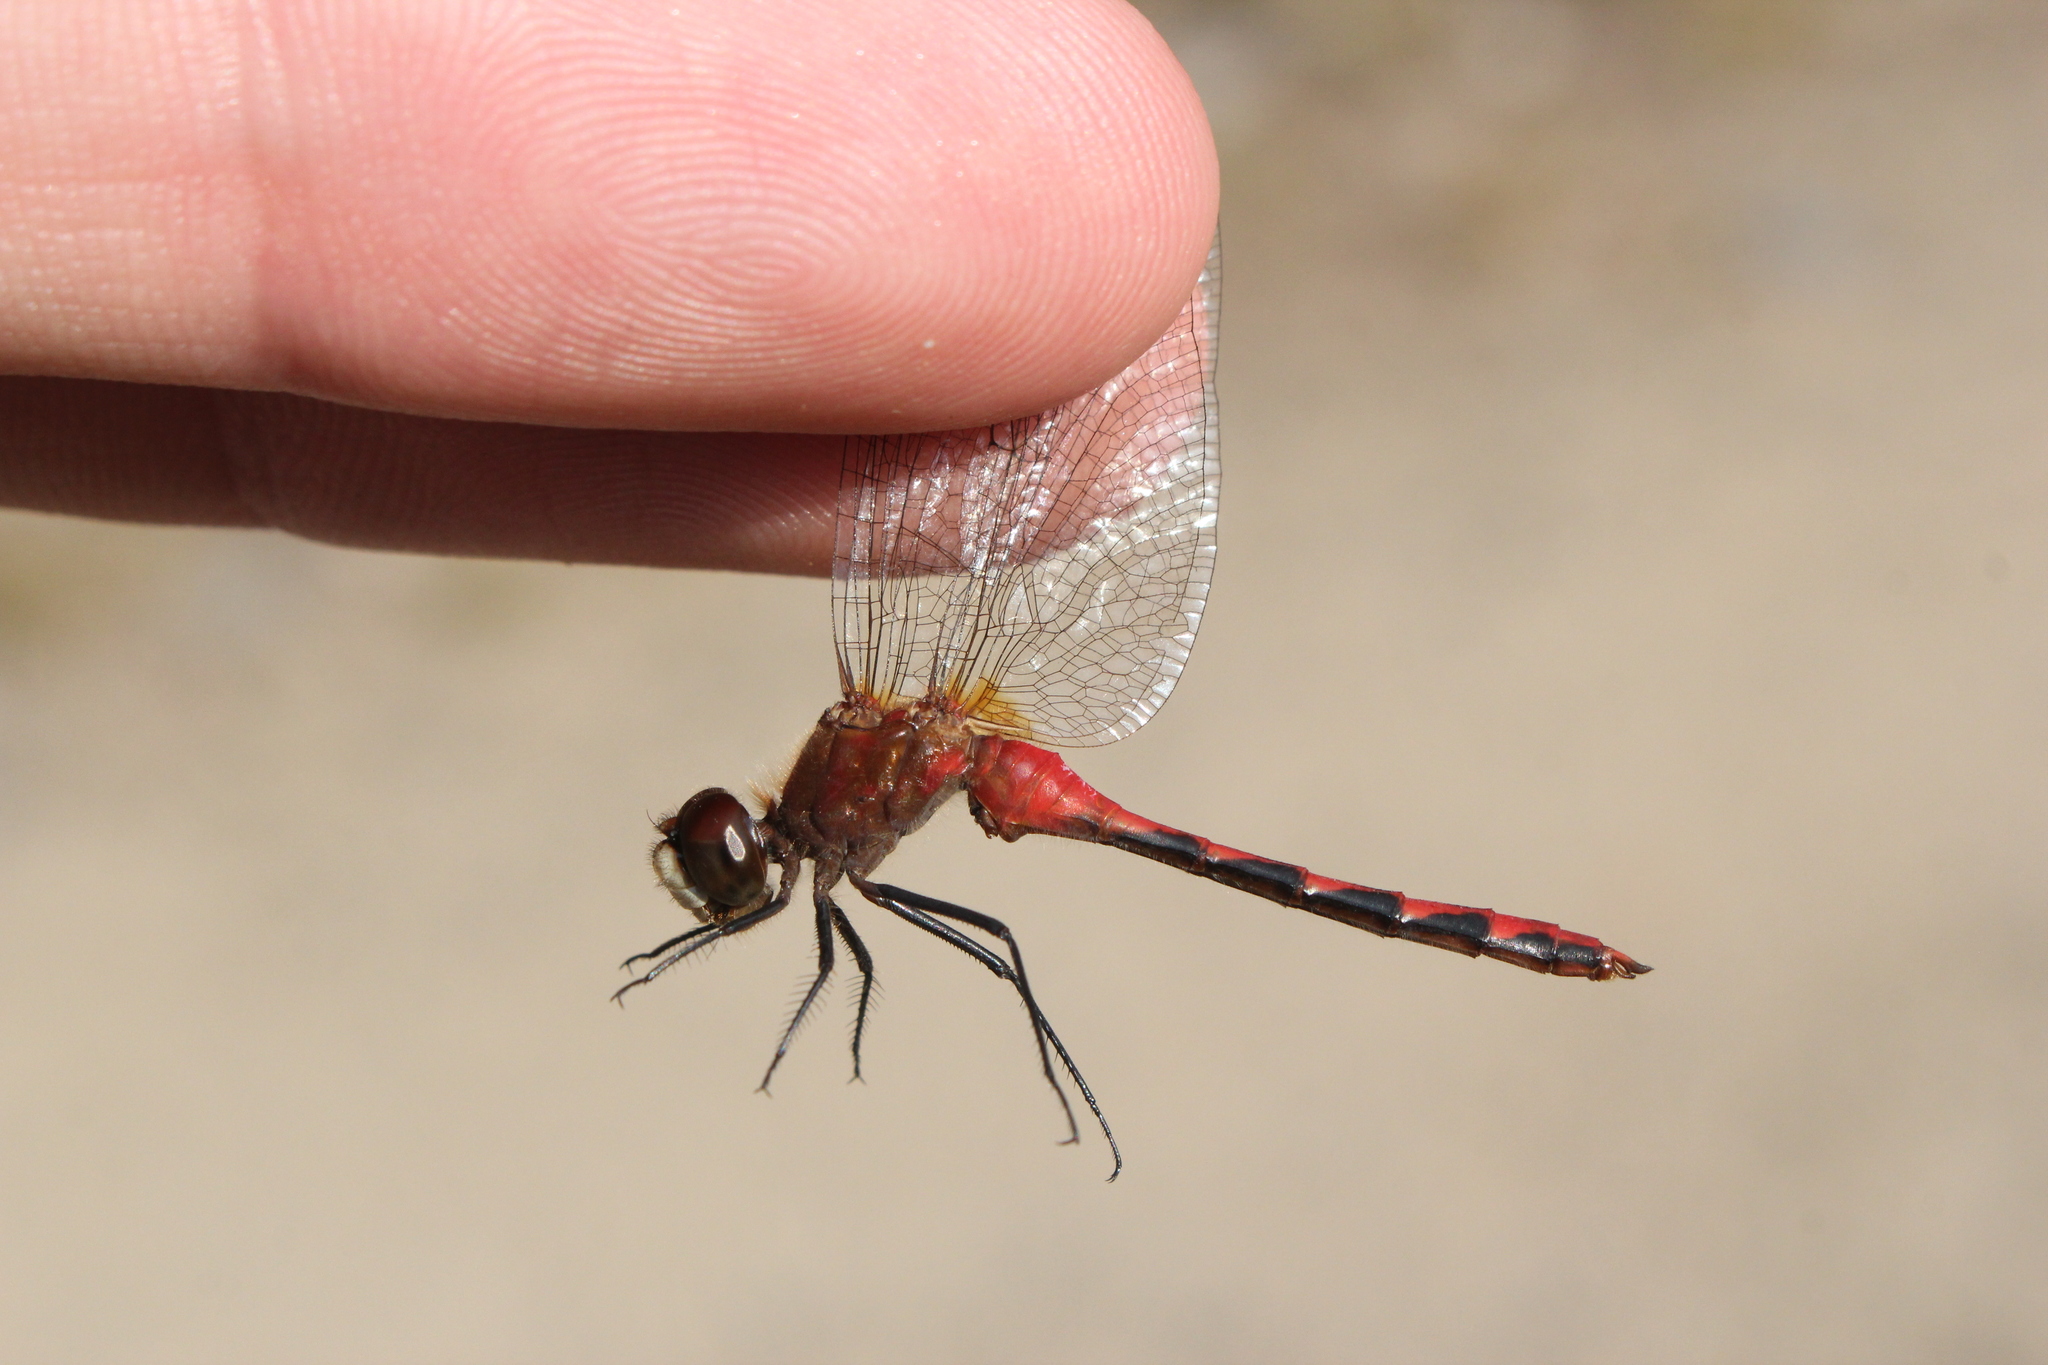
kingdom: Animalia
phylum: Arthropoda
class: Insecta
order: Odonata
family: Libellulidae
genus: Sympetrum
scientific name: Sympetrum obtrusum
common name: White-faced meadowhawk
